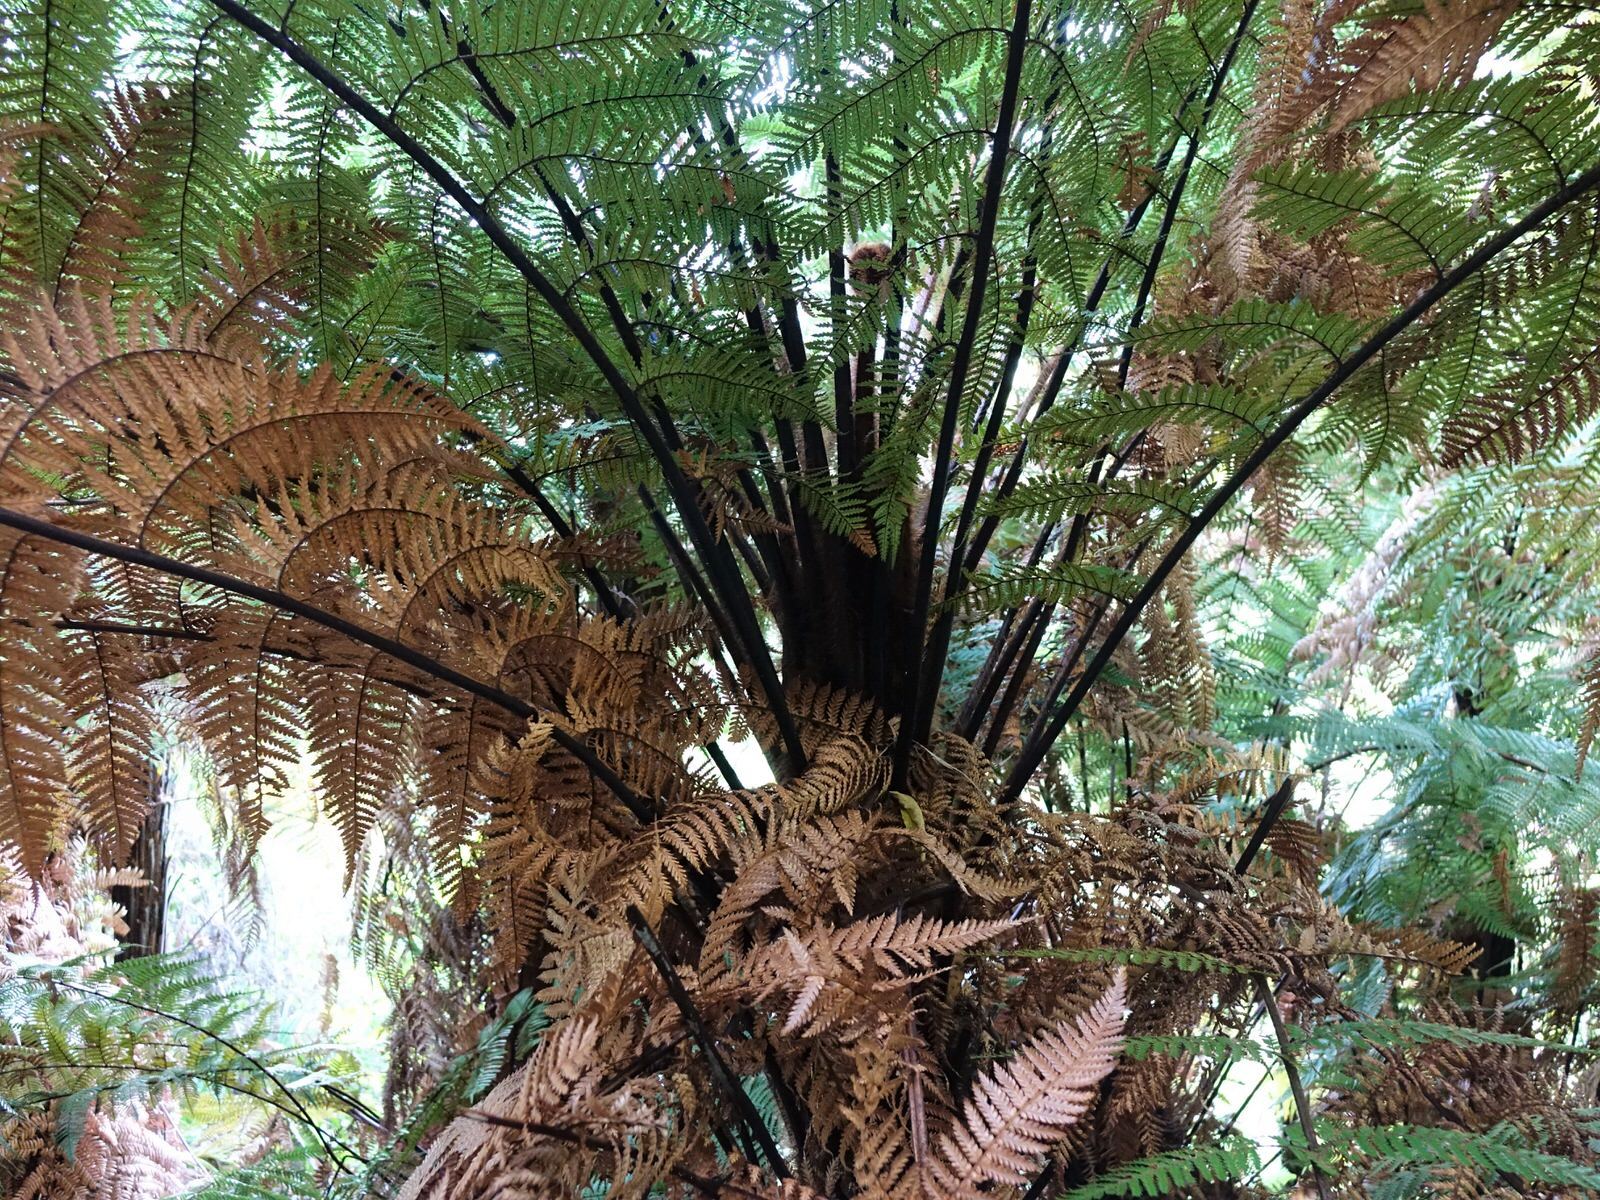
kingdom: Plantae
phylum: Tracheophyta
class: Polypodiopsida
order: Cyatheales
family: Dicksoniaceae
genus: Dicksonia
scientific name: Dicksonia squarrosa
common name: Hard treefern
